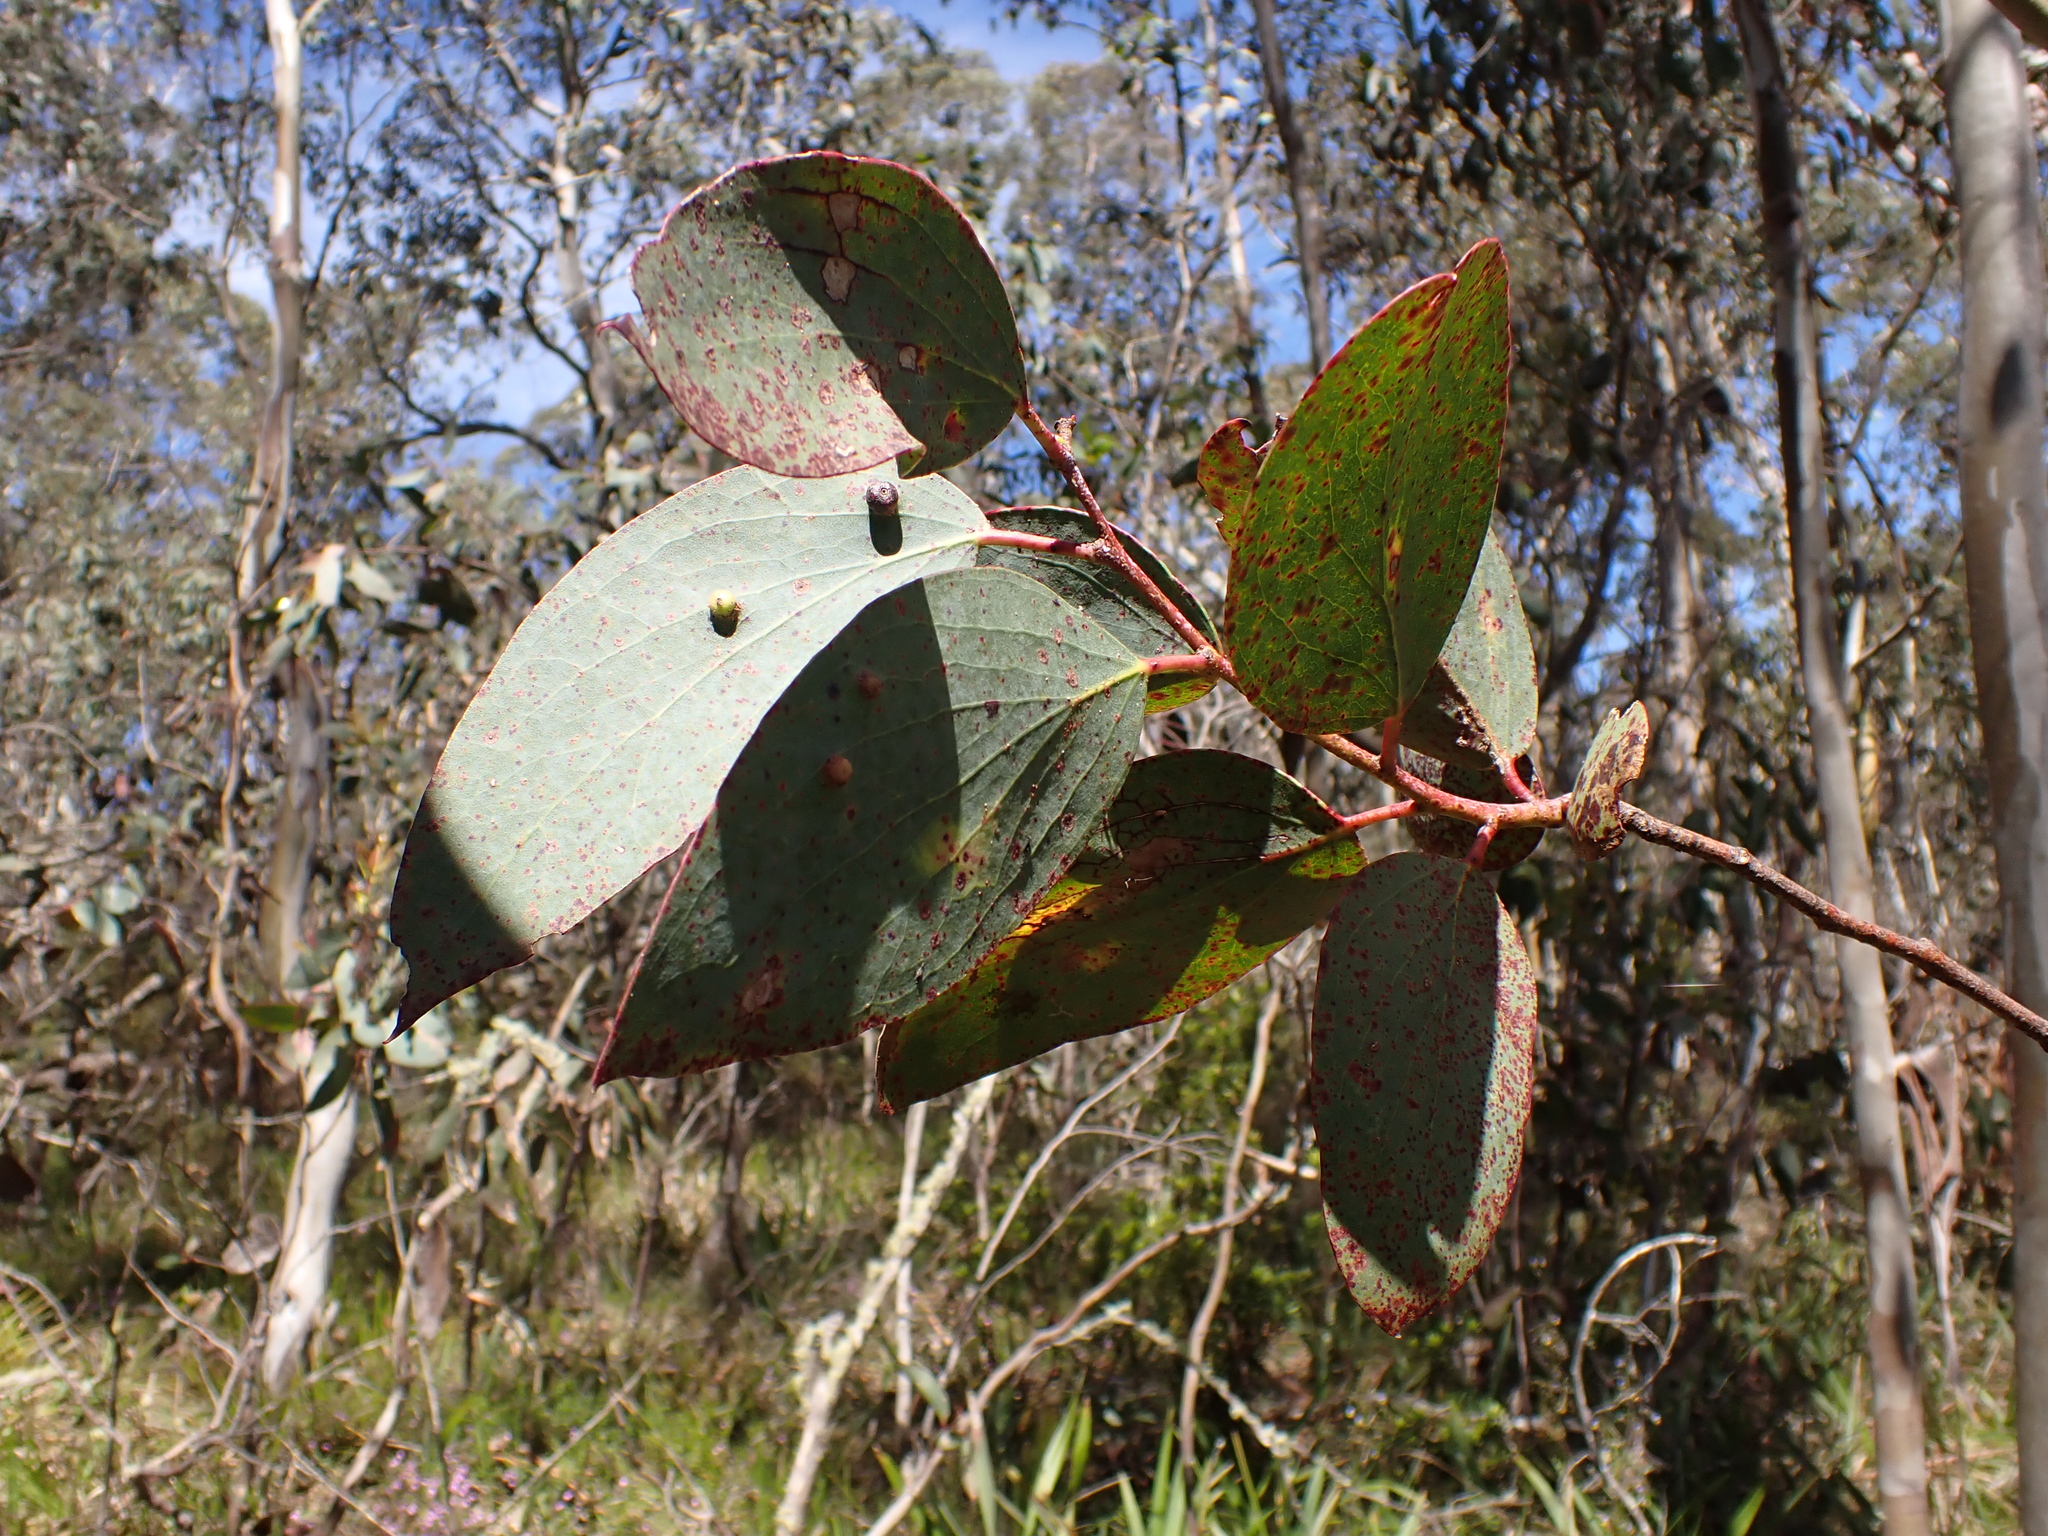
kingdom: Plantae
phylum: Tracheophyta
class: Magnoliopsida
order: Myrtales
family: Myrtaceae
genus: Eucalyptus
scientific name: Eucalyptus pauciflora
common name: Snow gum
